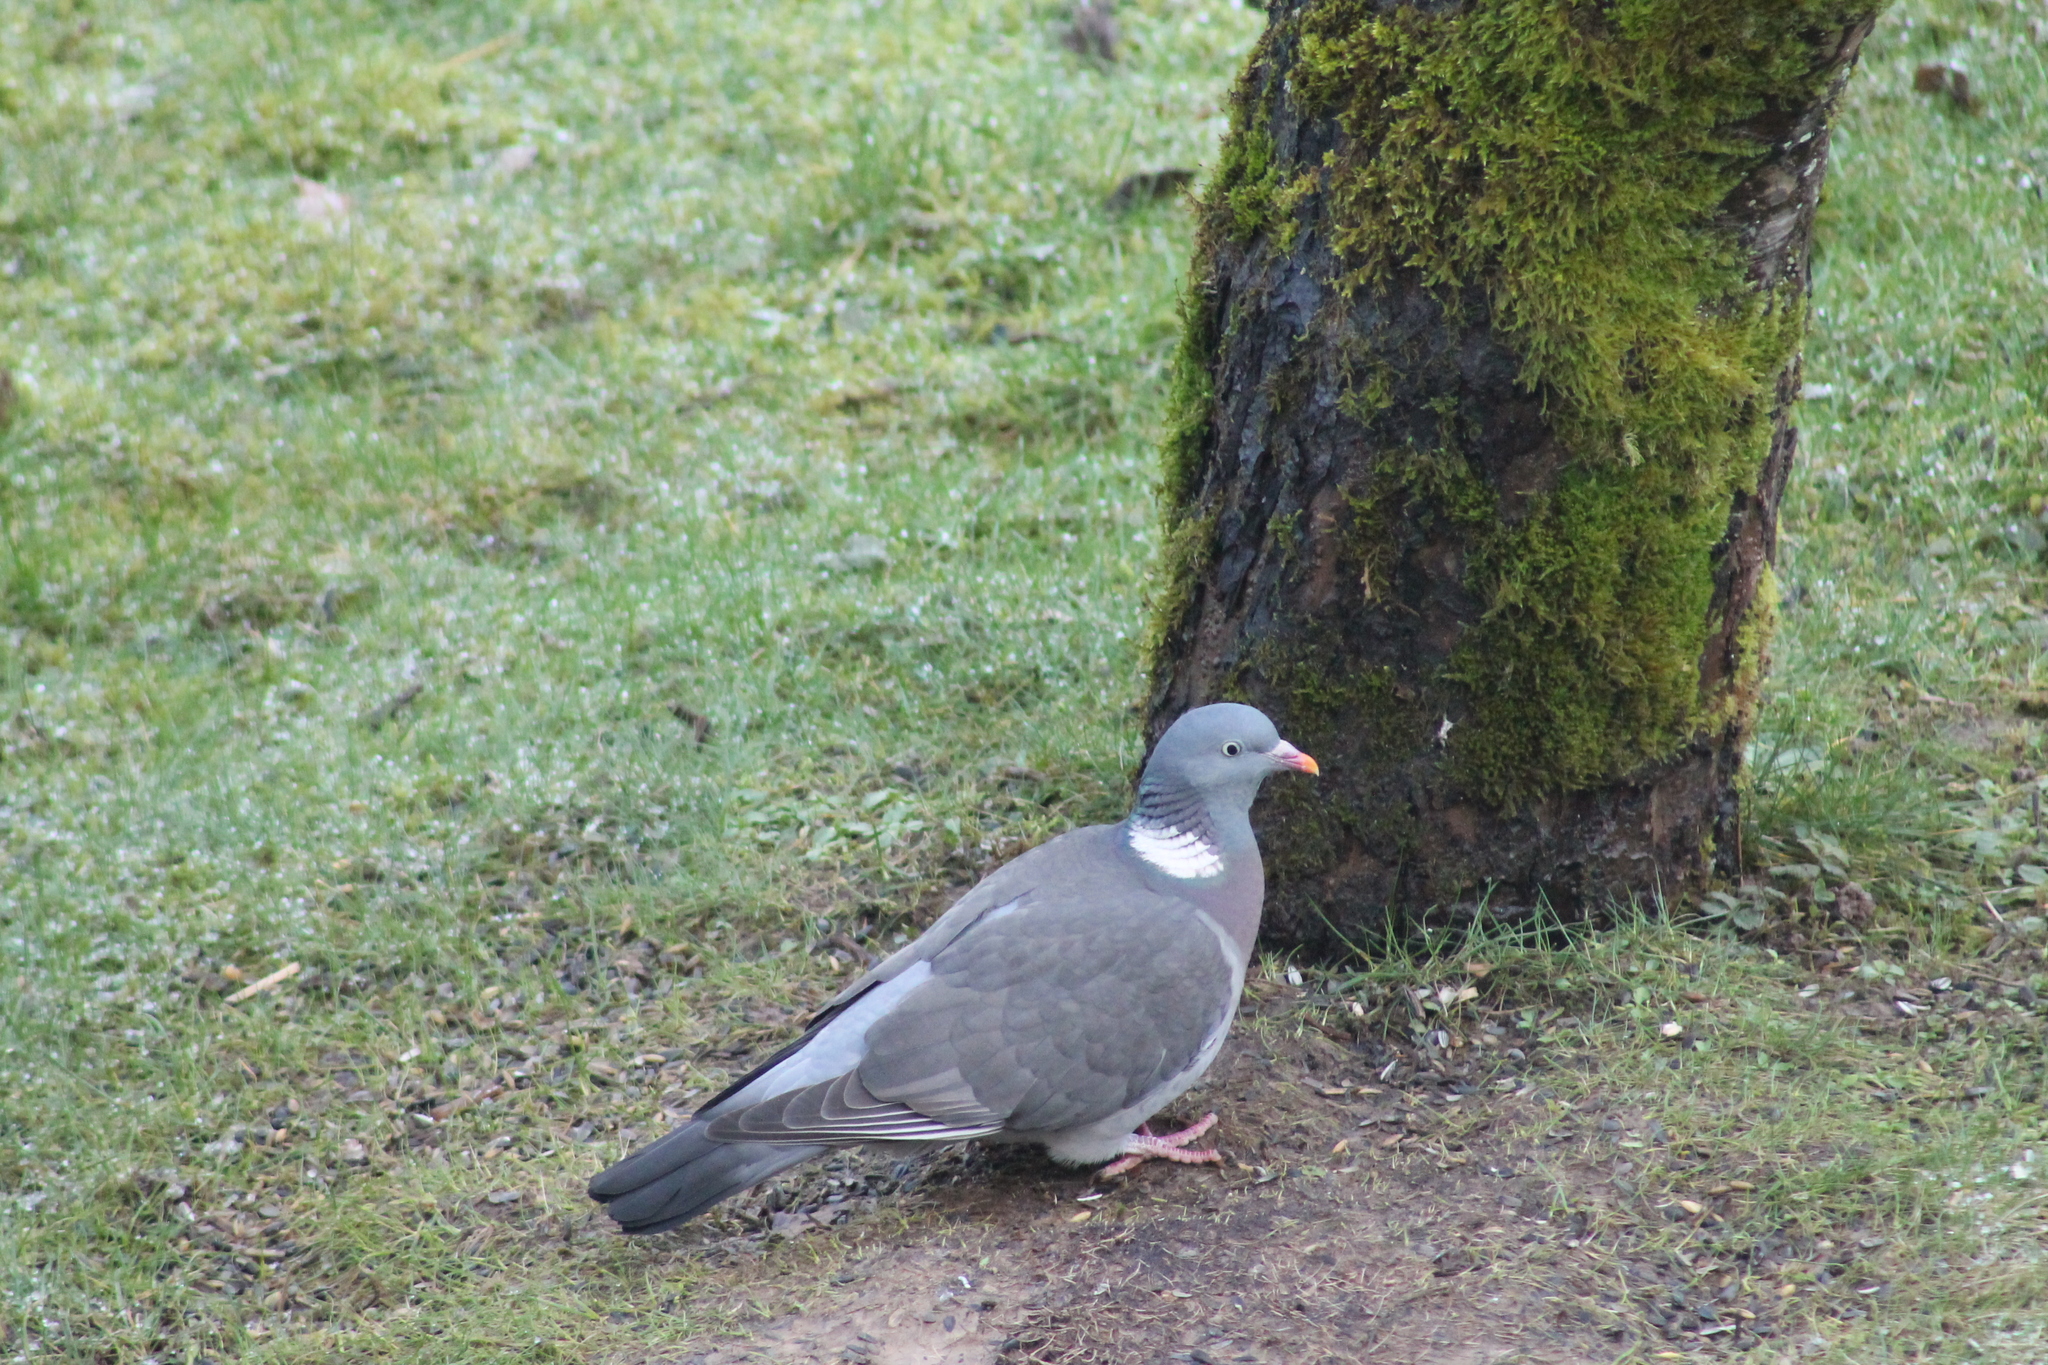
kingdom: Animalia
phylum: Chordata
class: Aves
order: Columbiformes
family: Columbidae
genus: Columba
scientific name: Columba palumbus
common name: Common wood pigeon
